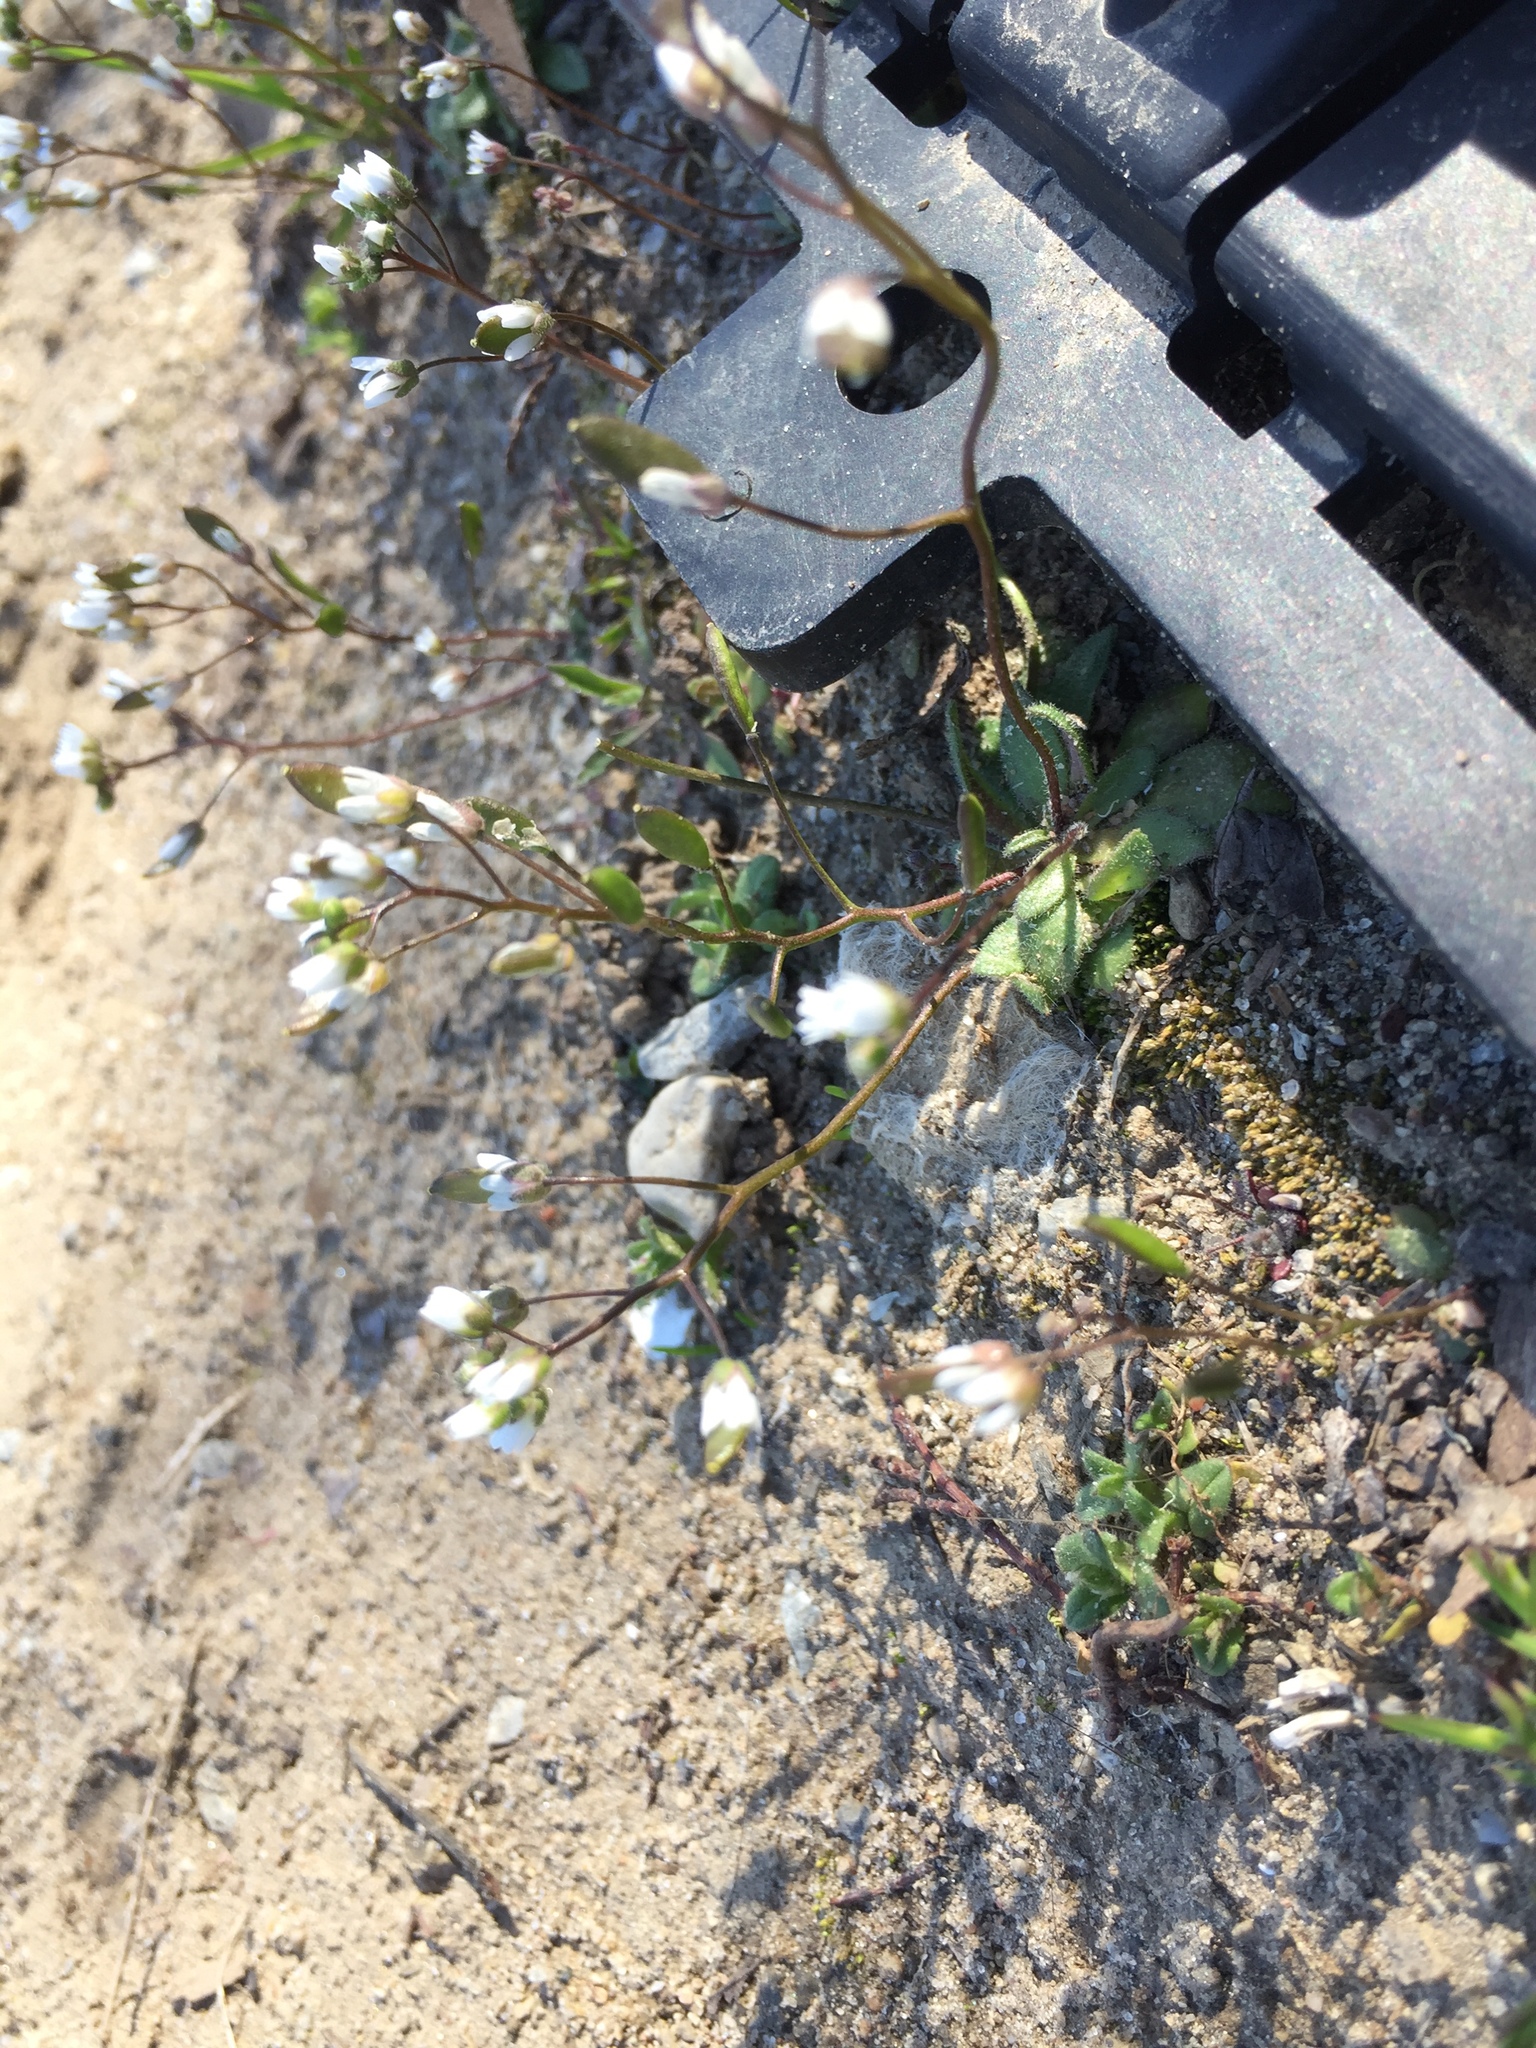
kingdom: Plantae
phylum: Tracheophyta
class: Magnoliopsida
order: Brassicales
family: Brassicaceae
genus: Draba
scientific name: Draba verna
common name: Spring draba
